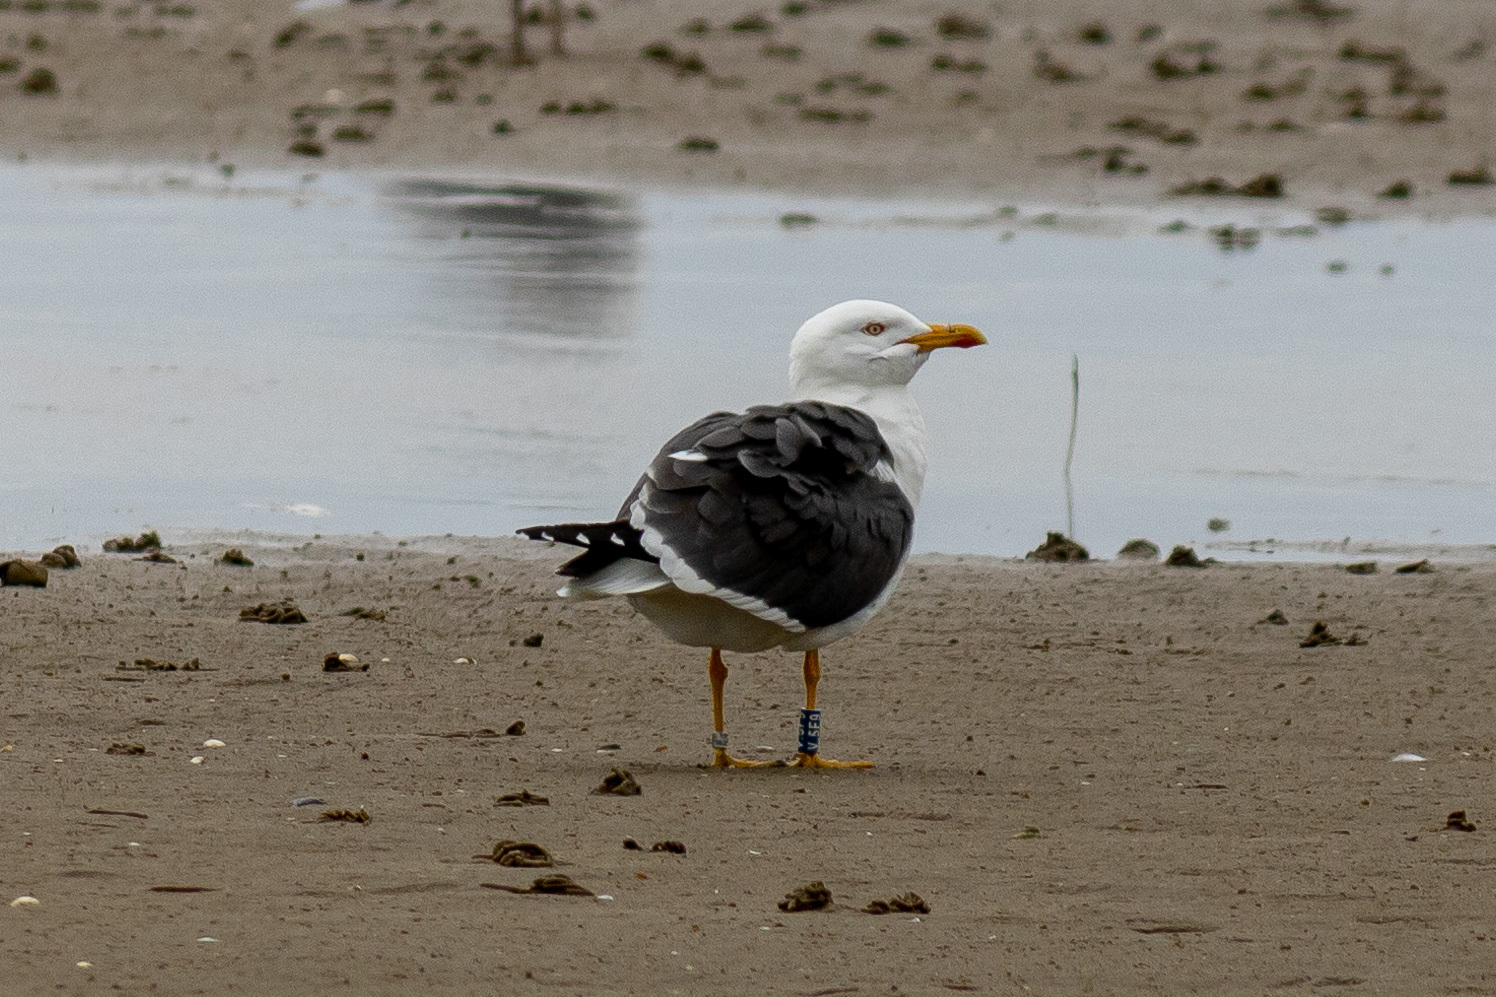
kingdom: Animalia
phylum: Chordata
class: Aves
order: Charadriiformes
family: Laridae
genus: Larus
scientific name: Larus fuscus
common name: Lesser black-backed gull
